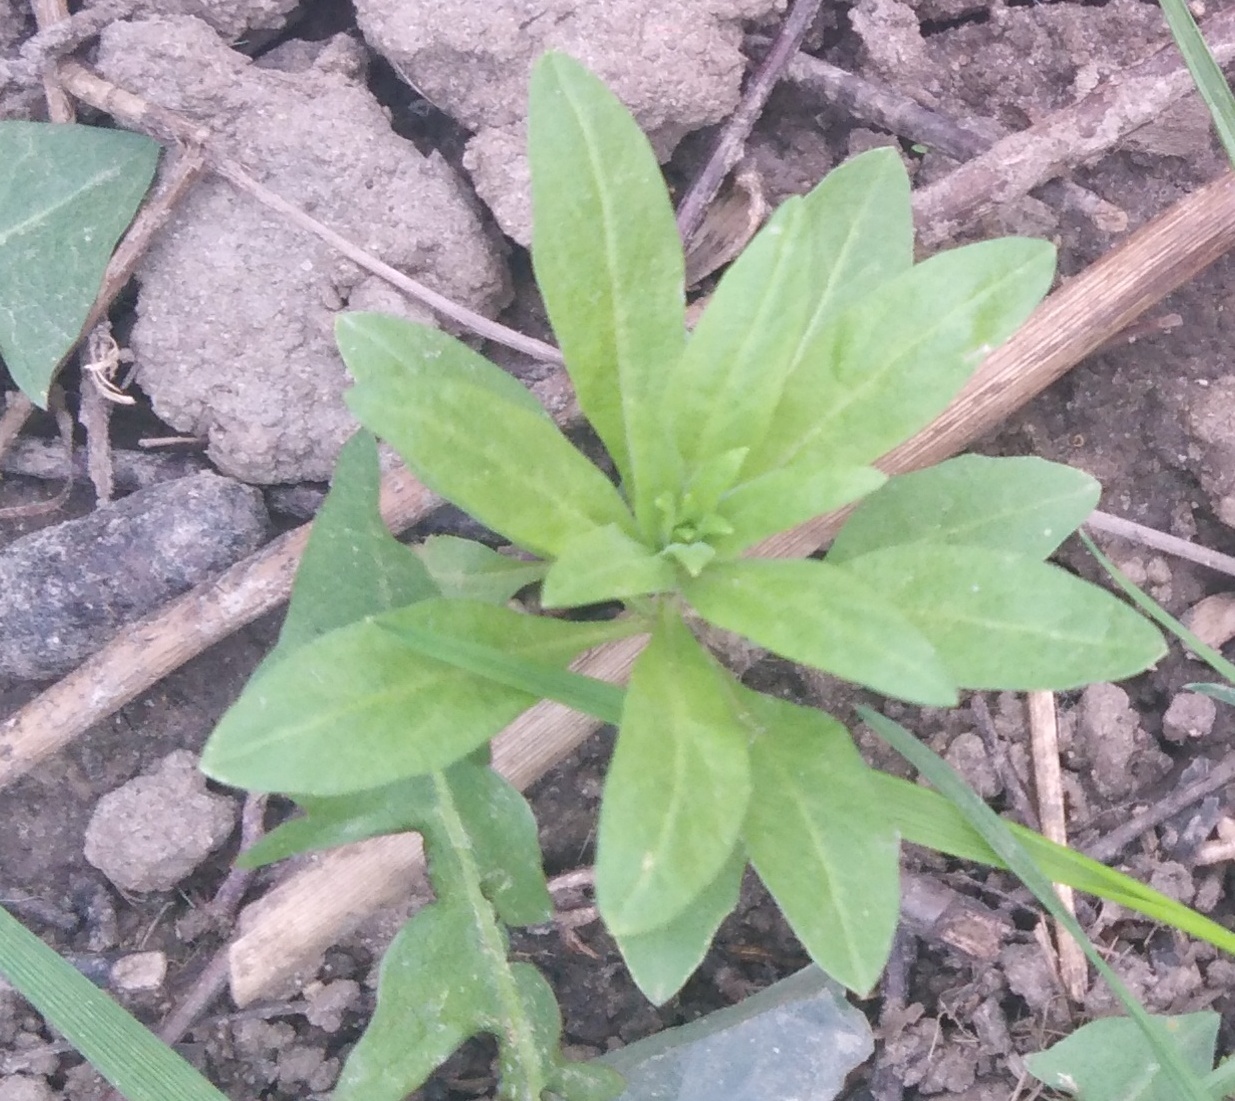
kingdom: Plantae
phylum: Tracheophyta
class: Magnoliopsida
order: Brassicales
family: Brassicaceae
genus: Erysimum
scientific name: Erysimum cheiranthoides
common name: Treacle mustard
